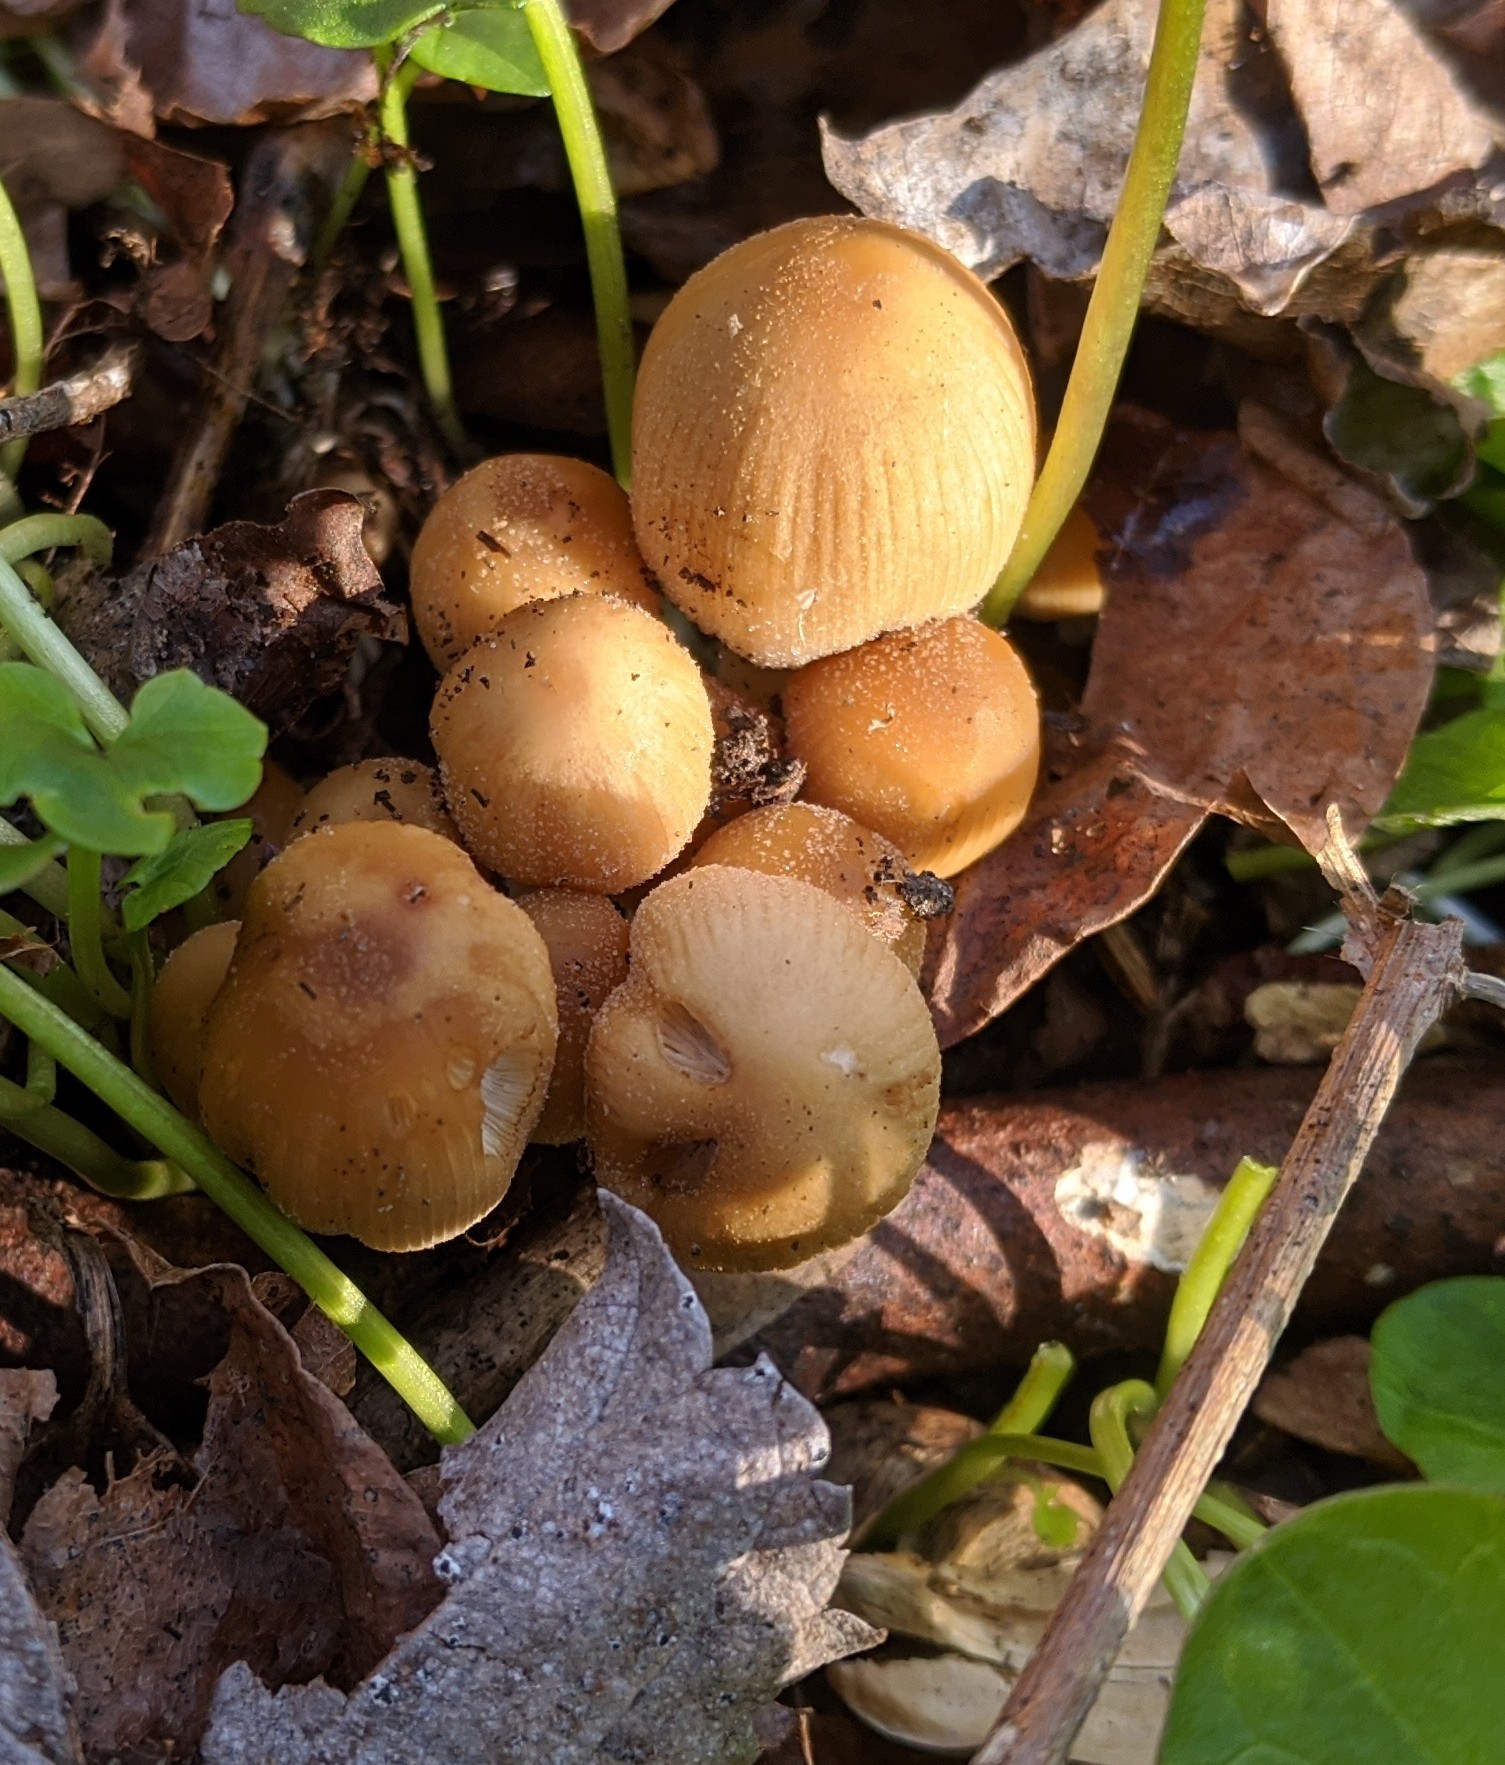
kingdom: Fungi
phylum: Basidiomycota
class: Agaricomycetes
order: Agaricales
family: Psathyrellaceae
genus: Coprinellus
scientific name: Coprinellus micaceus
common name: Glistening ink-cap
